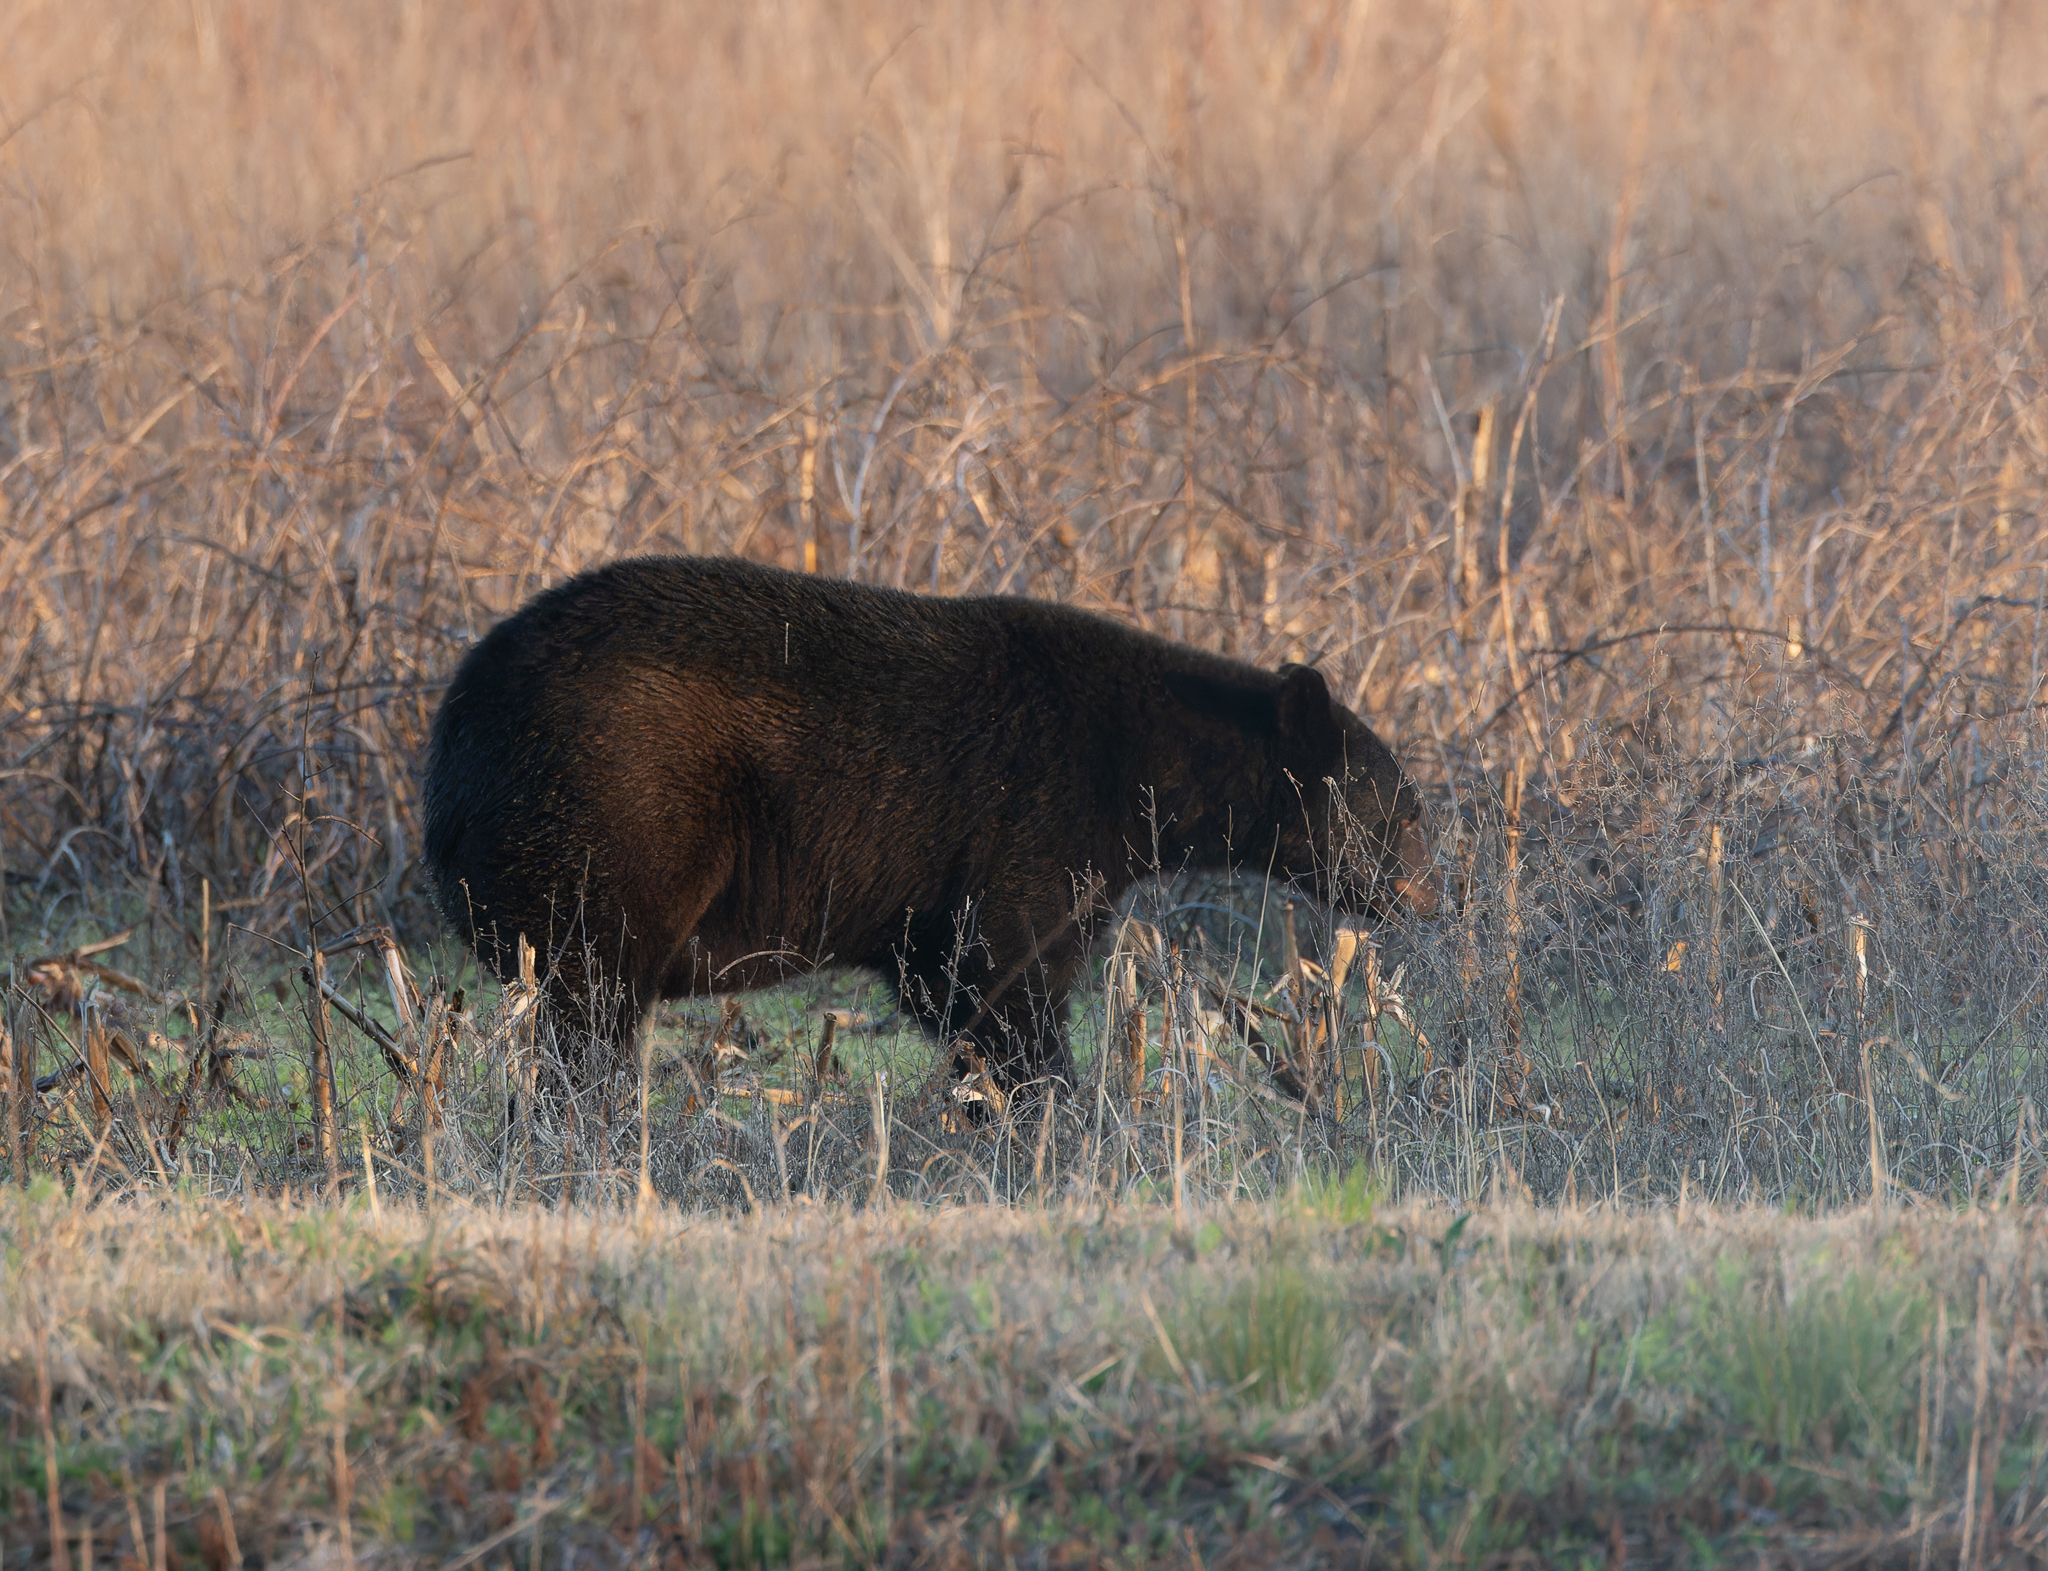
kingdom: Animalia
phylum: Chordata
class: Mammalia
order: Carnivora
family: Ursidae
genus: Ursus
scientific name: Ursus americanus
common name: American black bear
